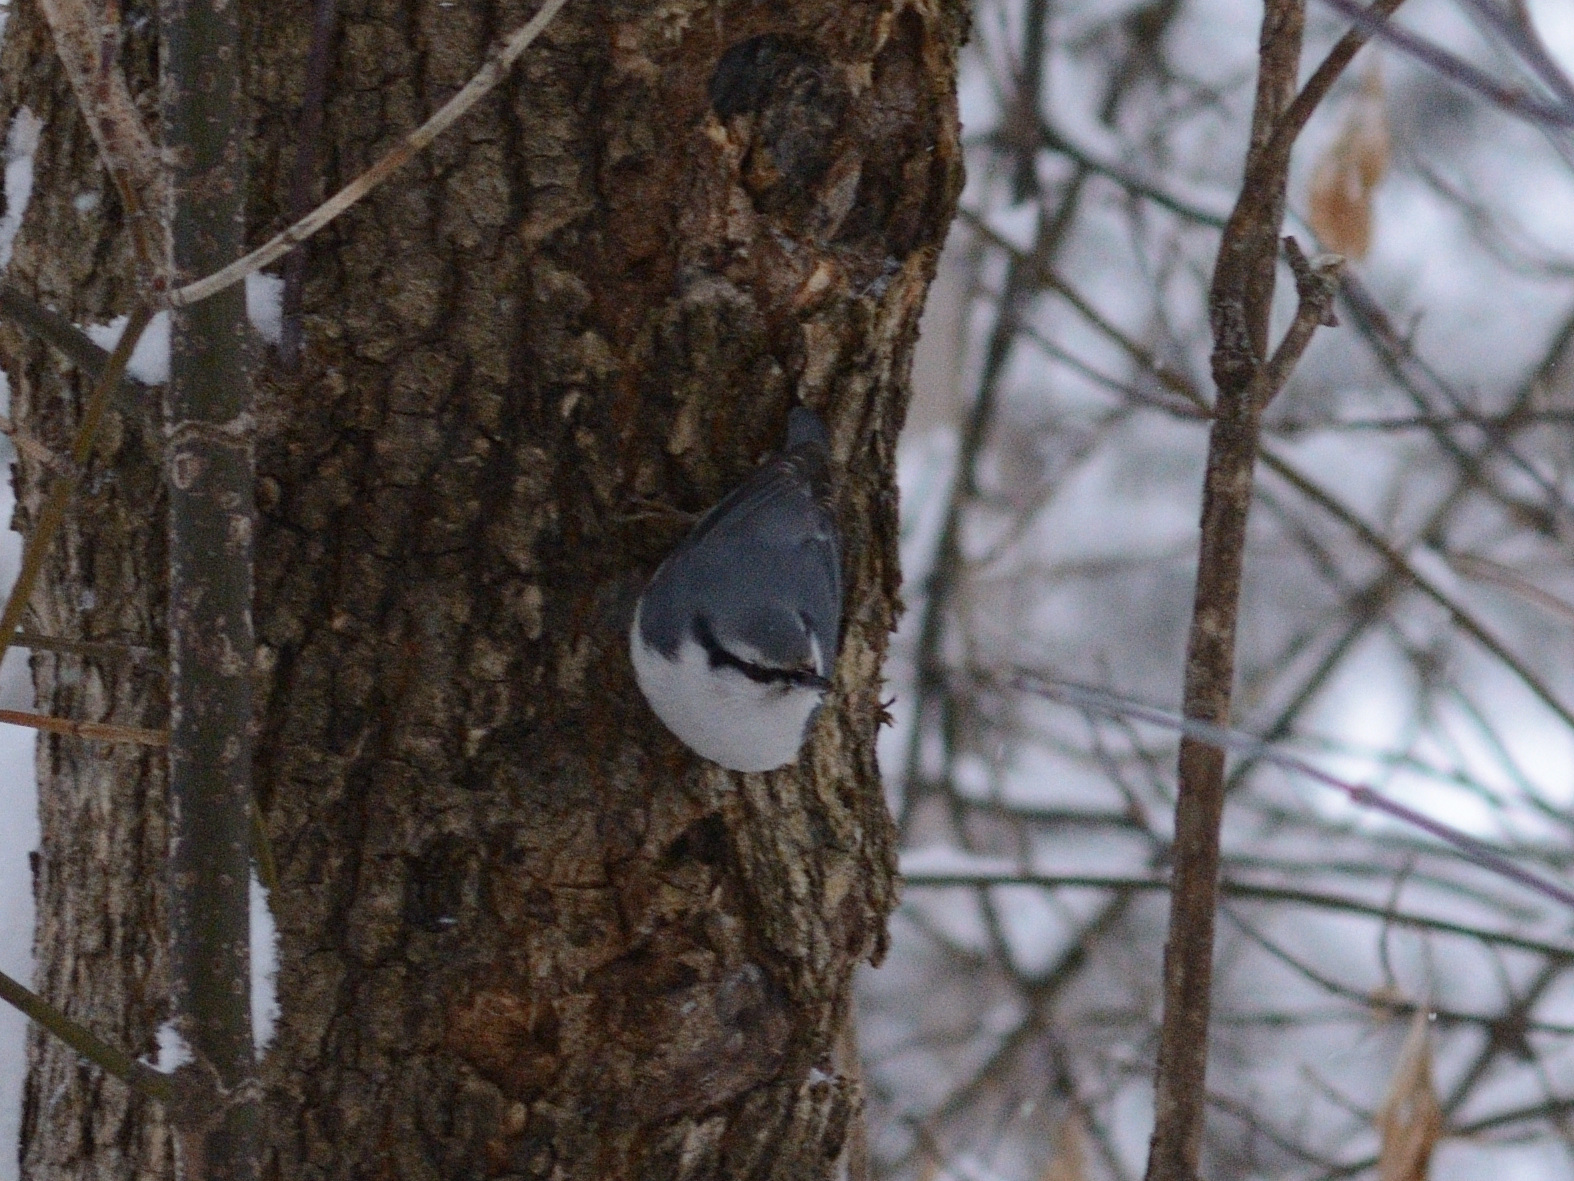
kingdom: Animalia
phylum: Chordata
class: Aves
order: Passeriformes
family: Sittidae
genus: Sitta
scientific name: Sitta europaea
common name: Eurasian nuthatch
